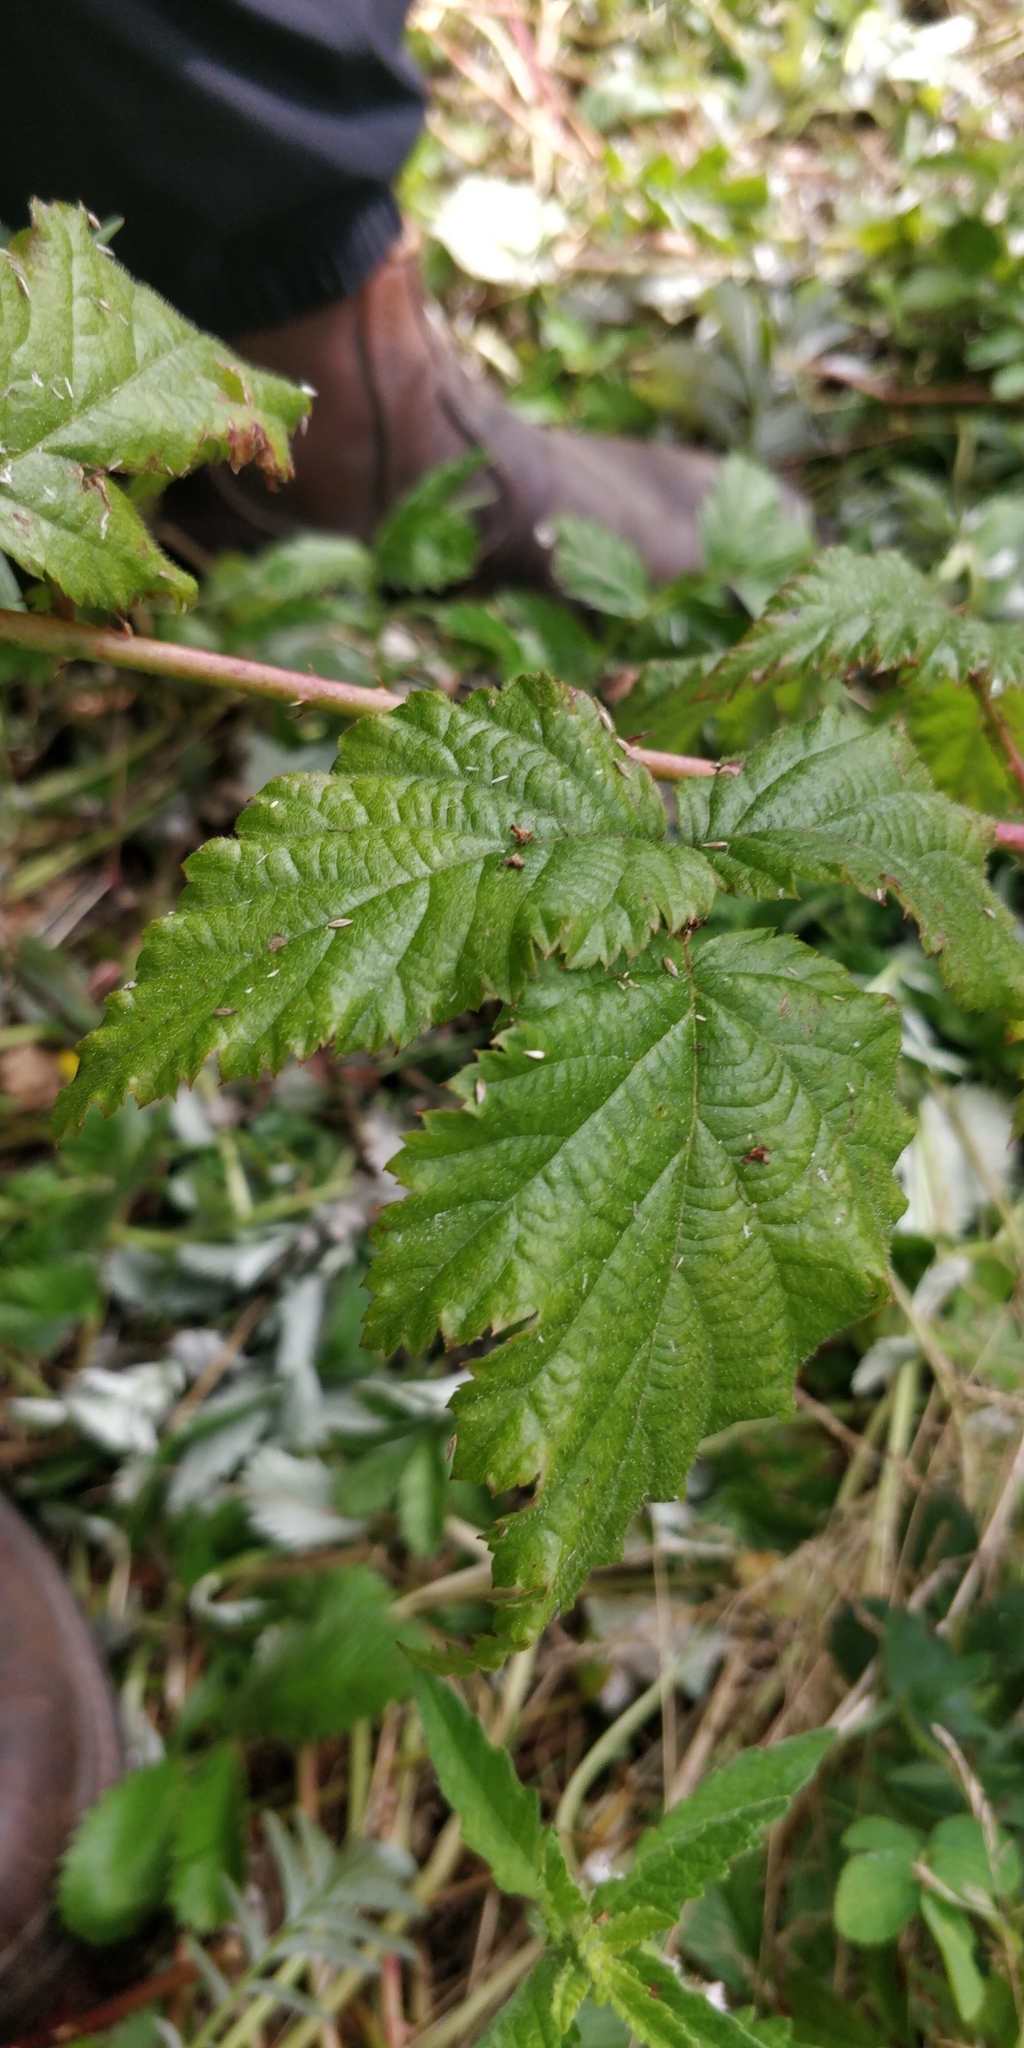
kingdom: Plantae
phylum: Tracheophyta
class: Magnoliopsida
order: Rosales
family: Rosaceae
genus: Rubus
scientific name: Rubus ursinus
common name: Pacific blackberry
